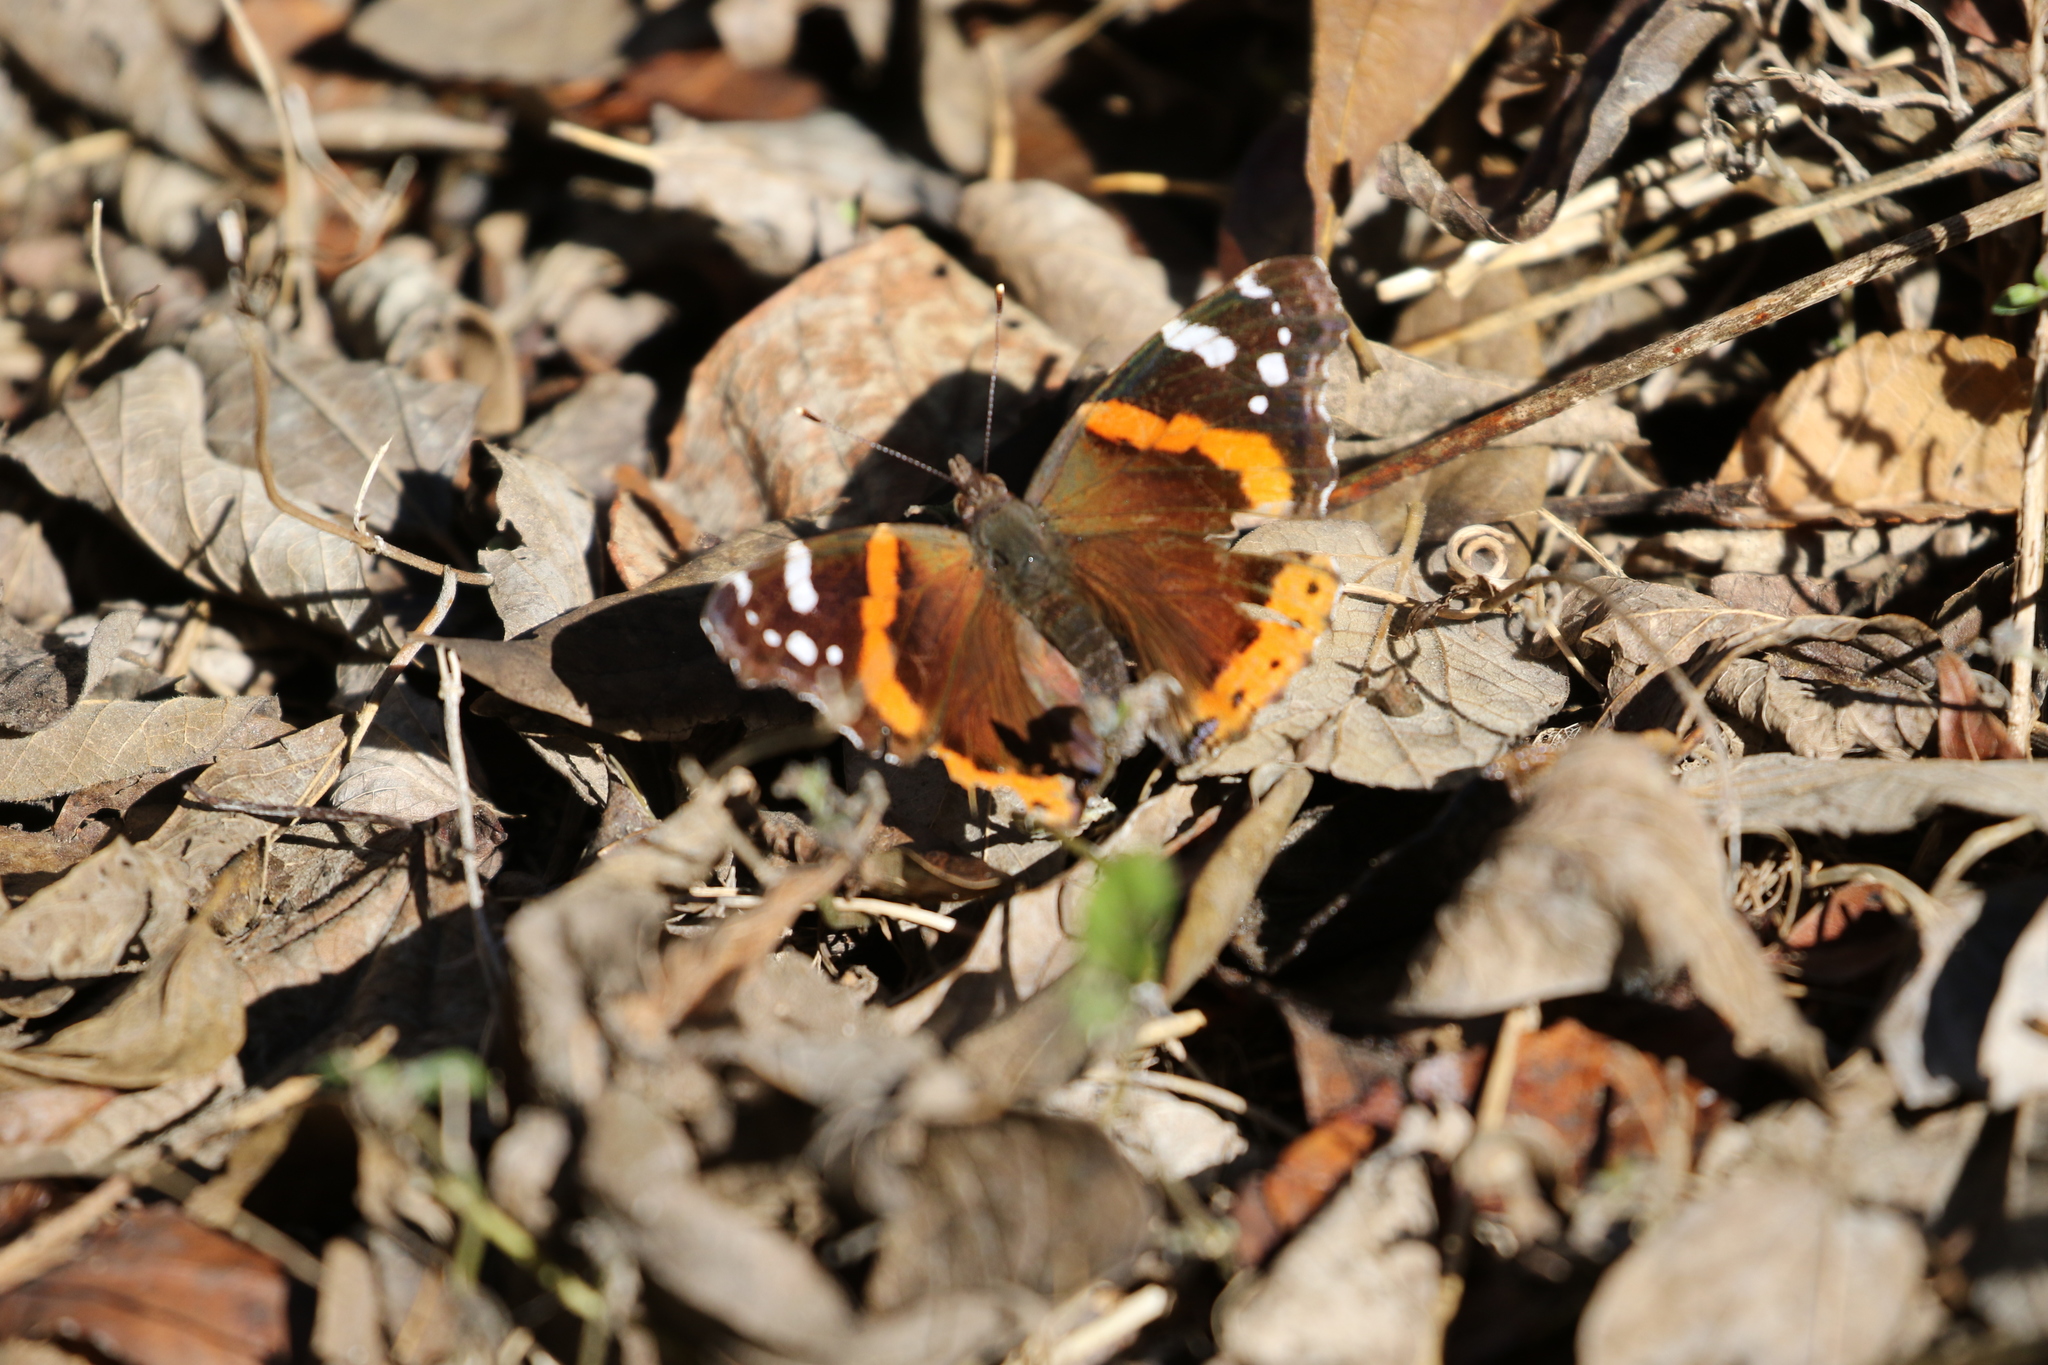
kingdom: Animalia
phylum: Arthropoda
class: Insecta
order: Lepidoptera
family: Nymphalidae
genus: Vanessa
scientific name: Vanessa atalanta
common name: Red admiral
